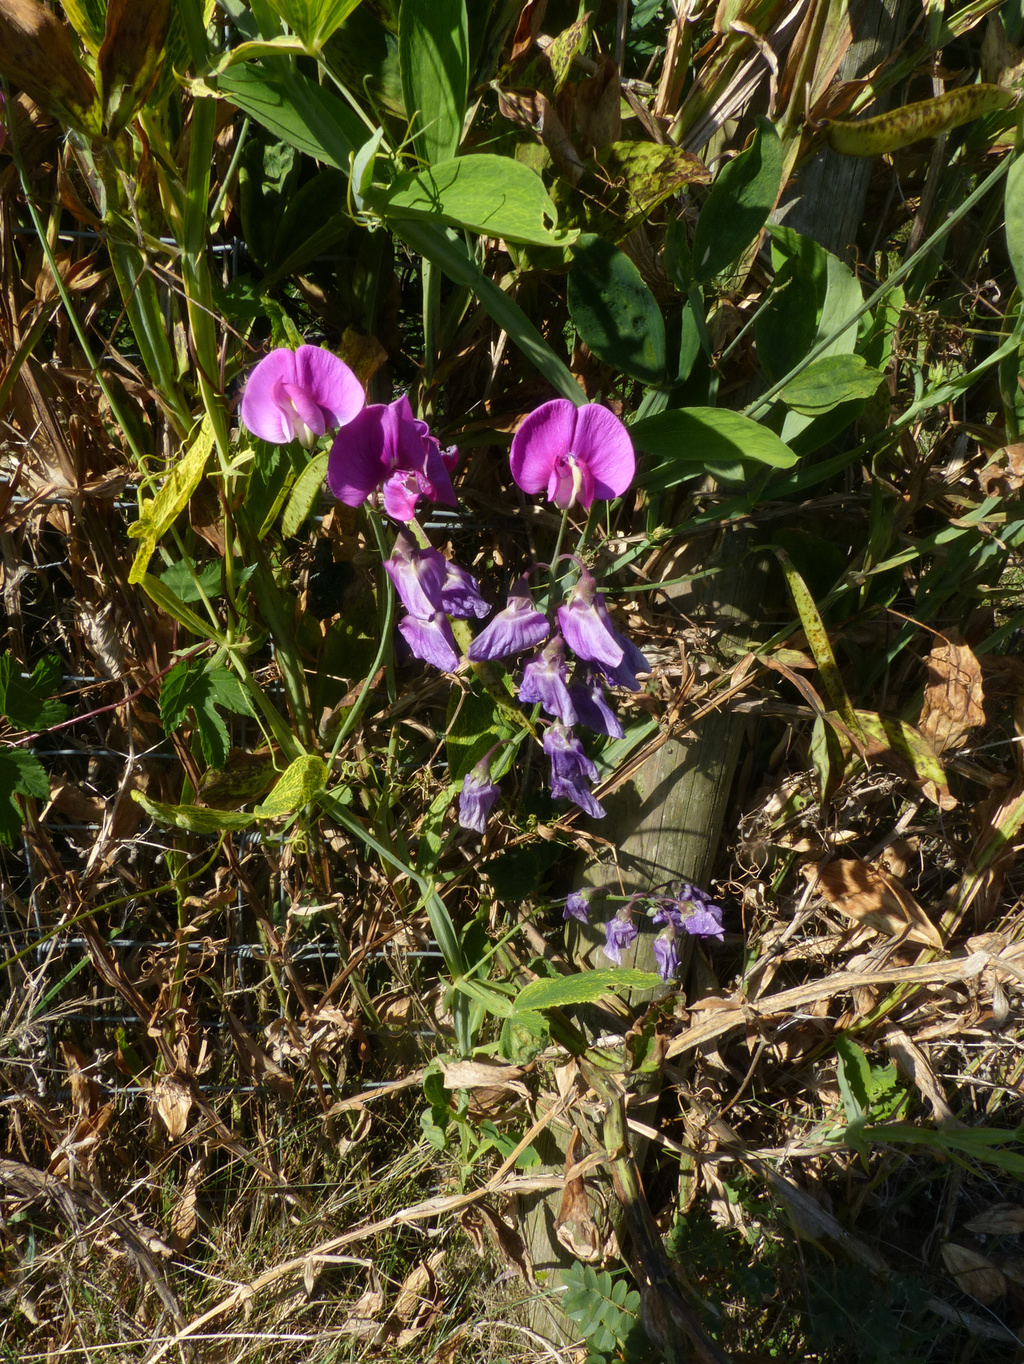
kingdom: Plantae
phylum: Tracheophyta
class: Magnoliopsida
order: Fabales
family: Fabaceae
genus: Lathyrus
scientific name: Lathyrus latifolius
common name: Perennial pea
